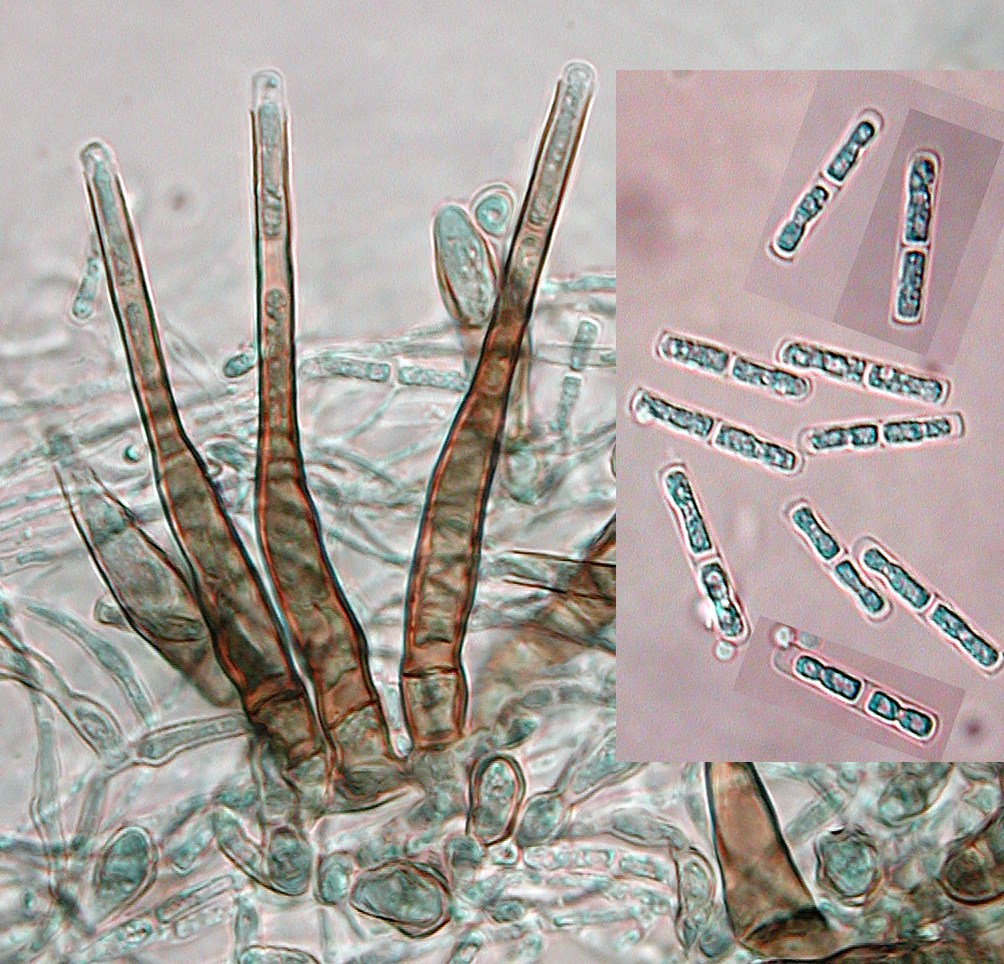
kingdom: Fungi
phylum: Ascomycota
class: Leotiomycetes
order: Helotiales
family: Pezizellaceae
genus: Chalara
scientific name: Chalara hughesii
